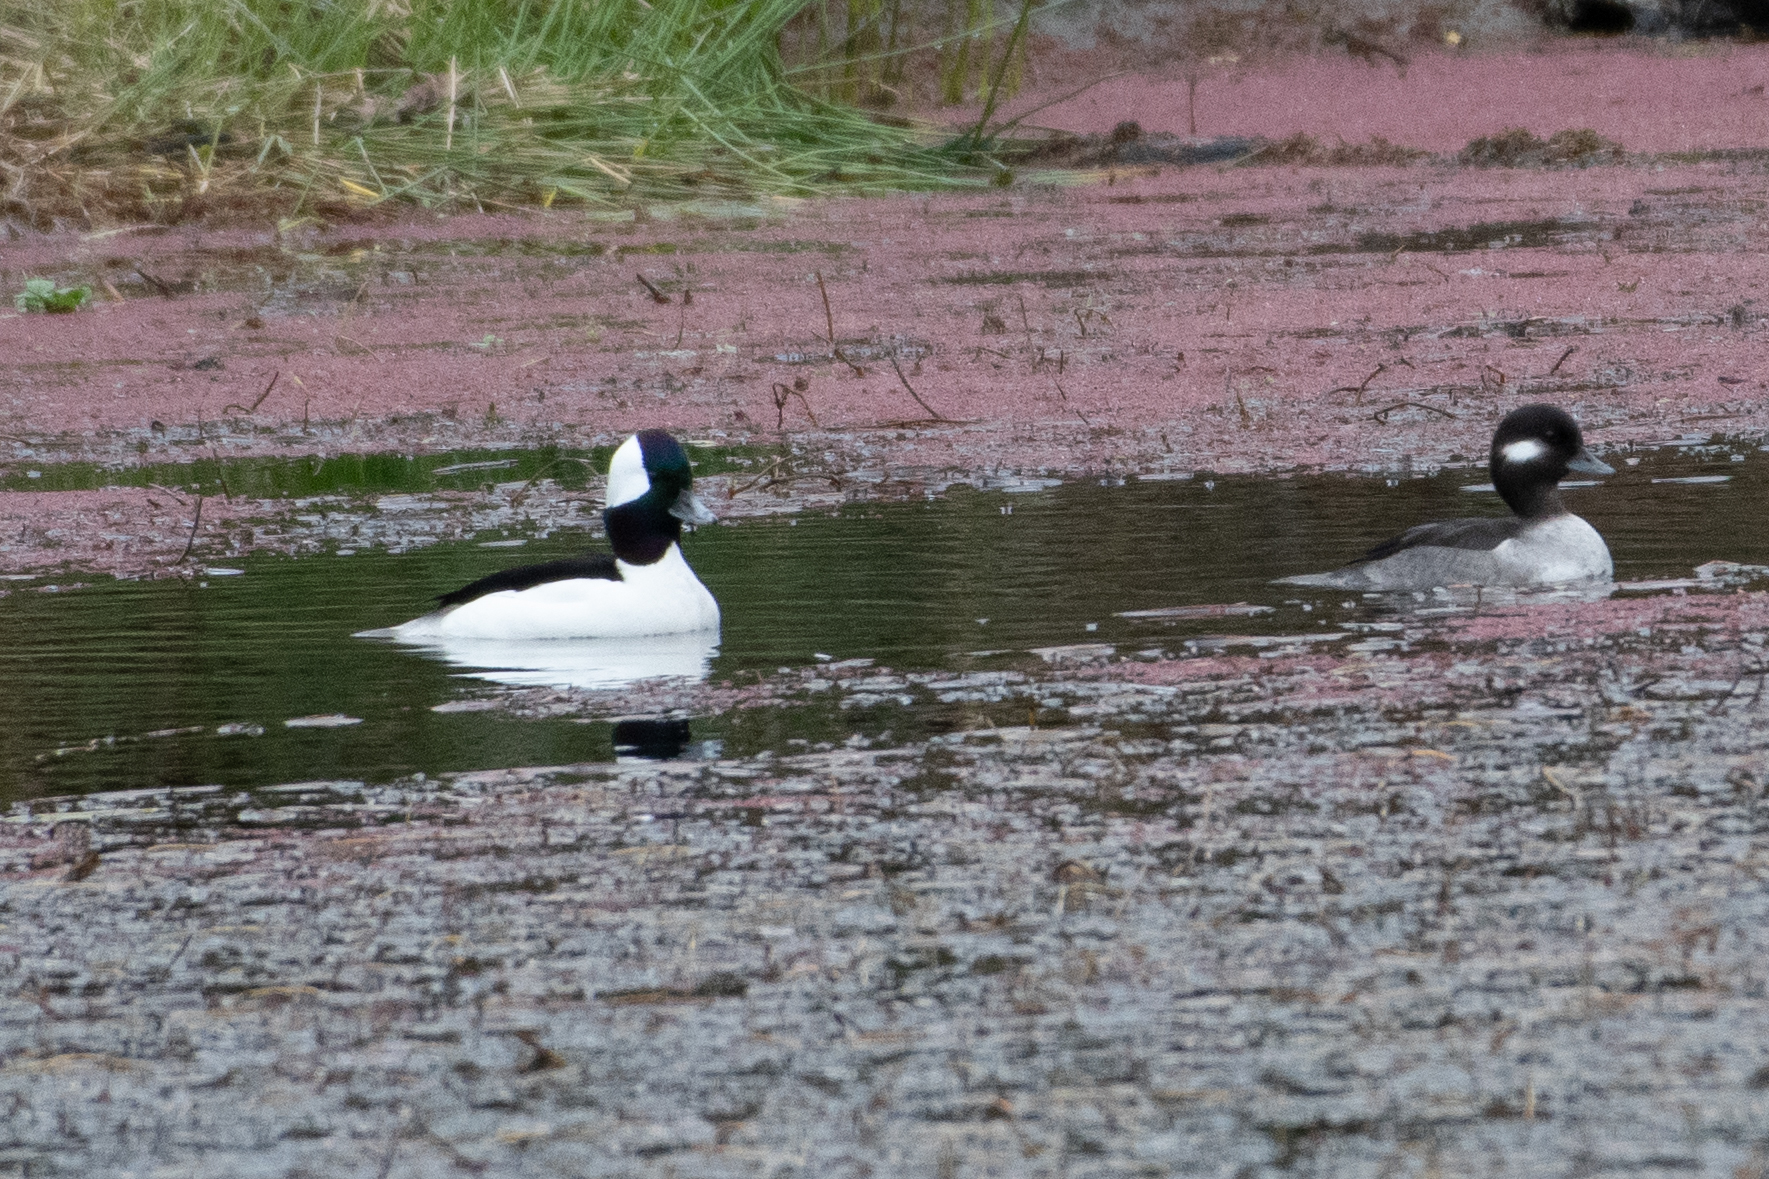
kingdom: Animalia
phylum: Chordata
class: Aves
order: Anseriformes
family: Anatidae
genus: Bucephala
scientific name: Bucephala albeola
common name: Bufflehead
